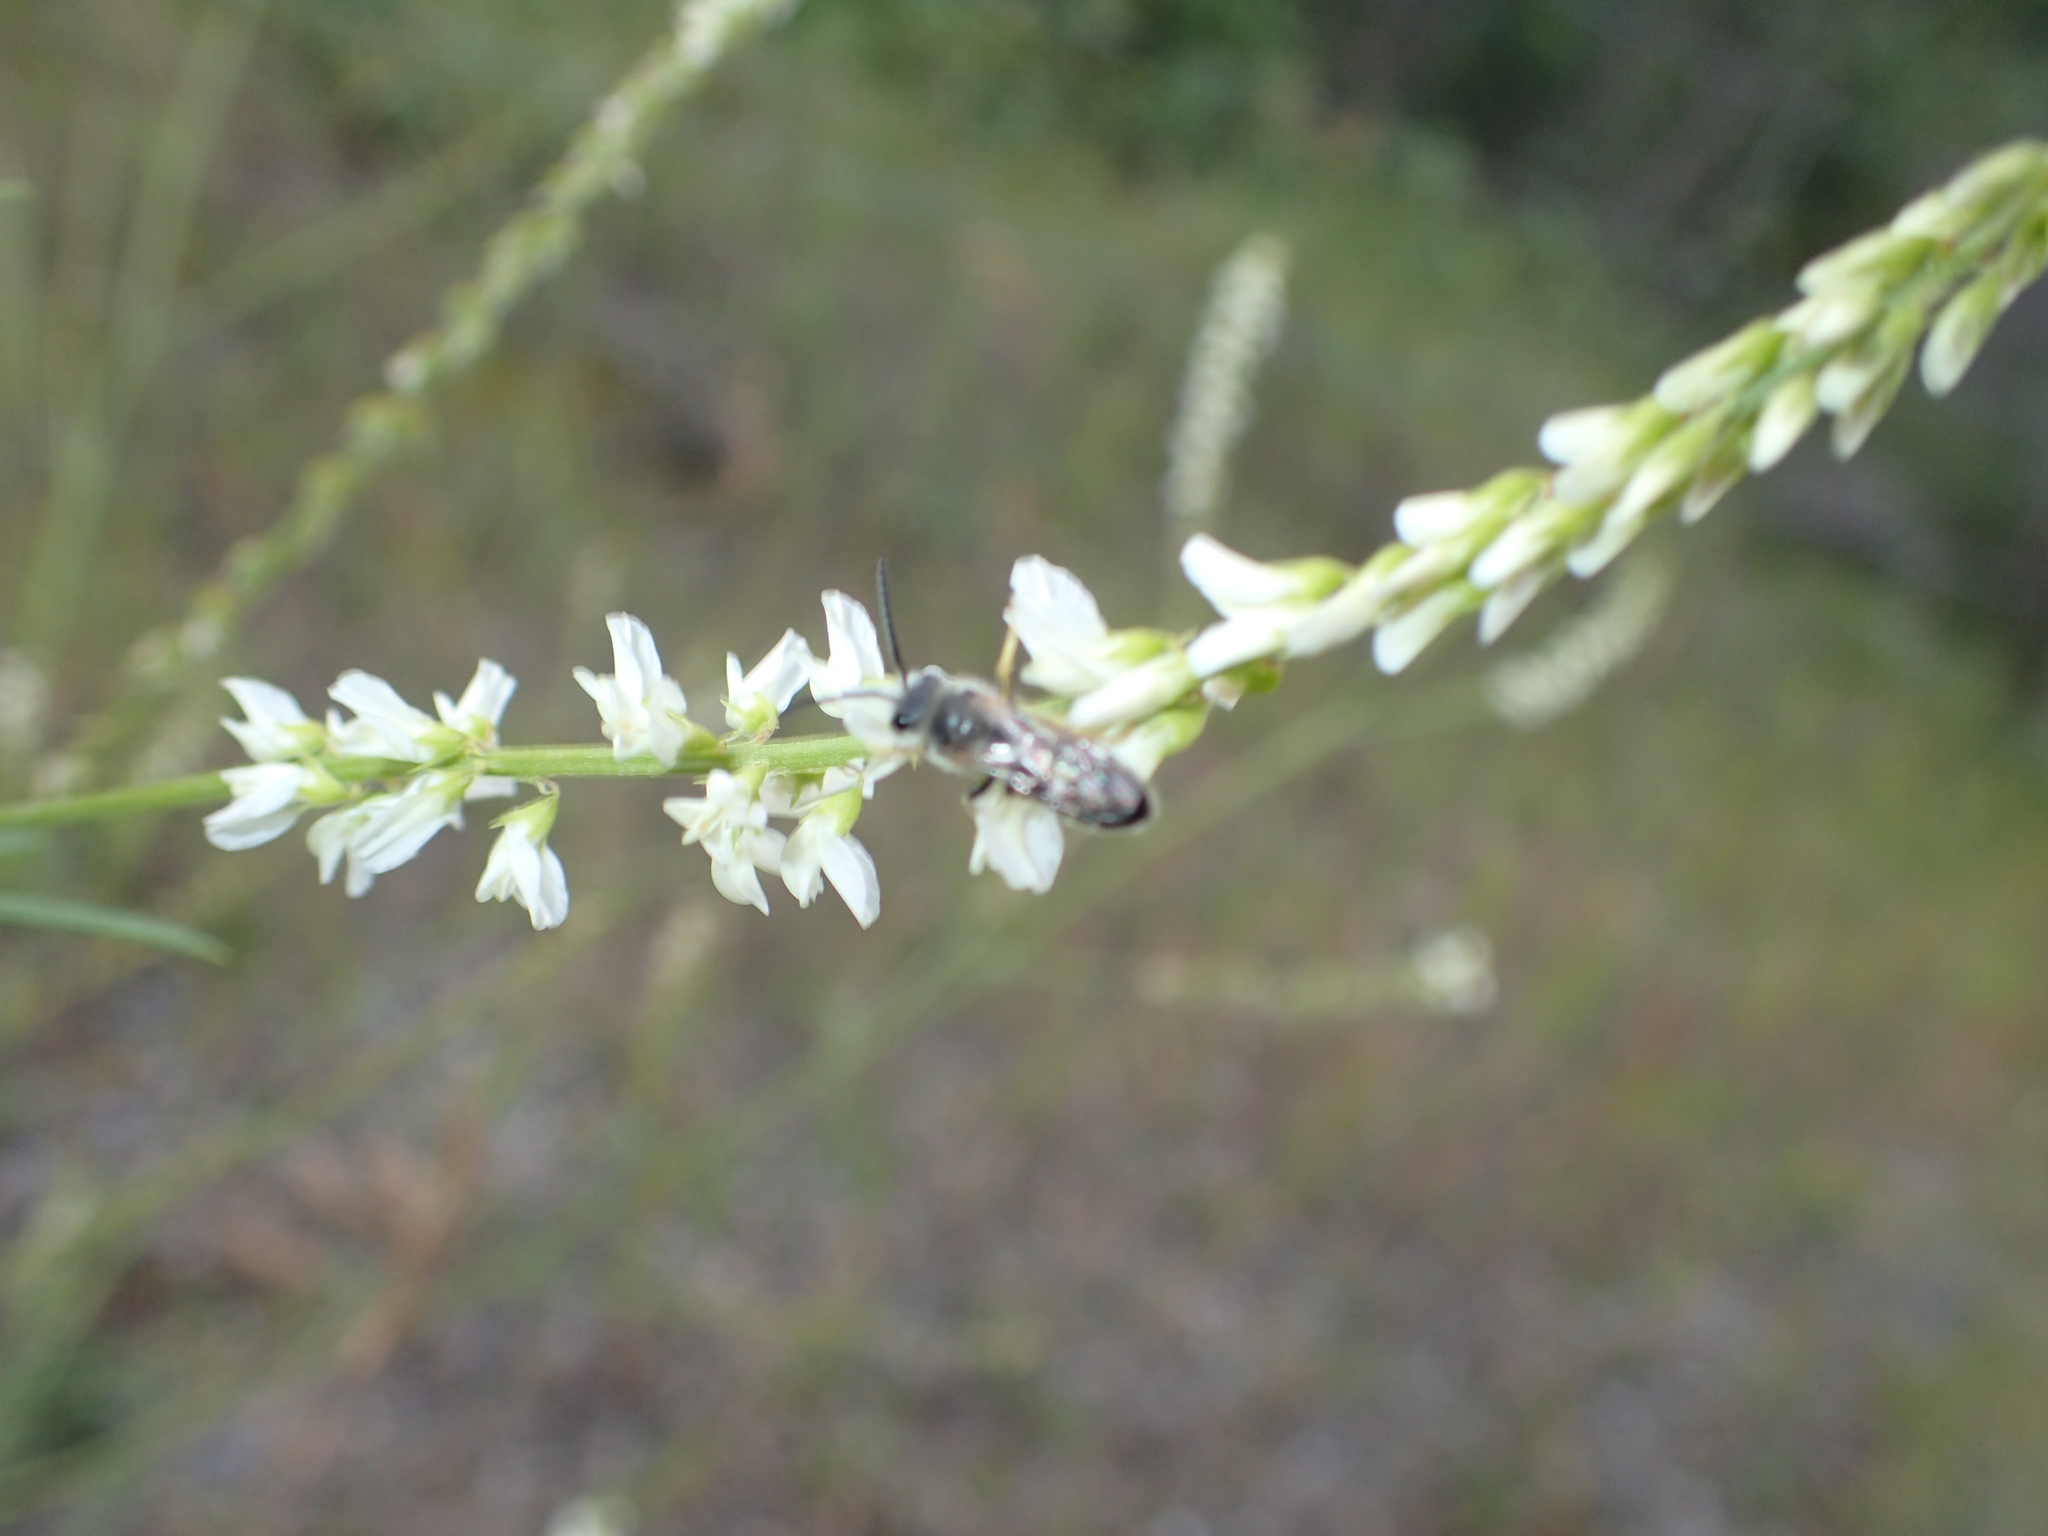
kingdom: Animalia
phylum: Arthropoda
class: Insecta
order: Hymenoptera
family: Halictidae
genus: Halictus
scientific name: Halictus rubicundus
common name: Orange-legged furrow bee
